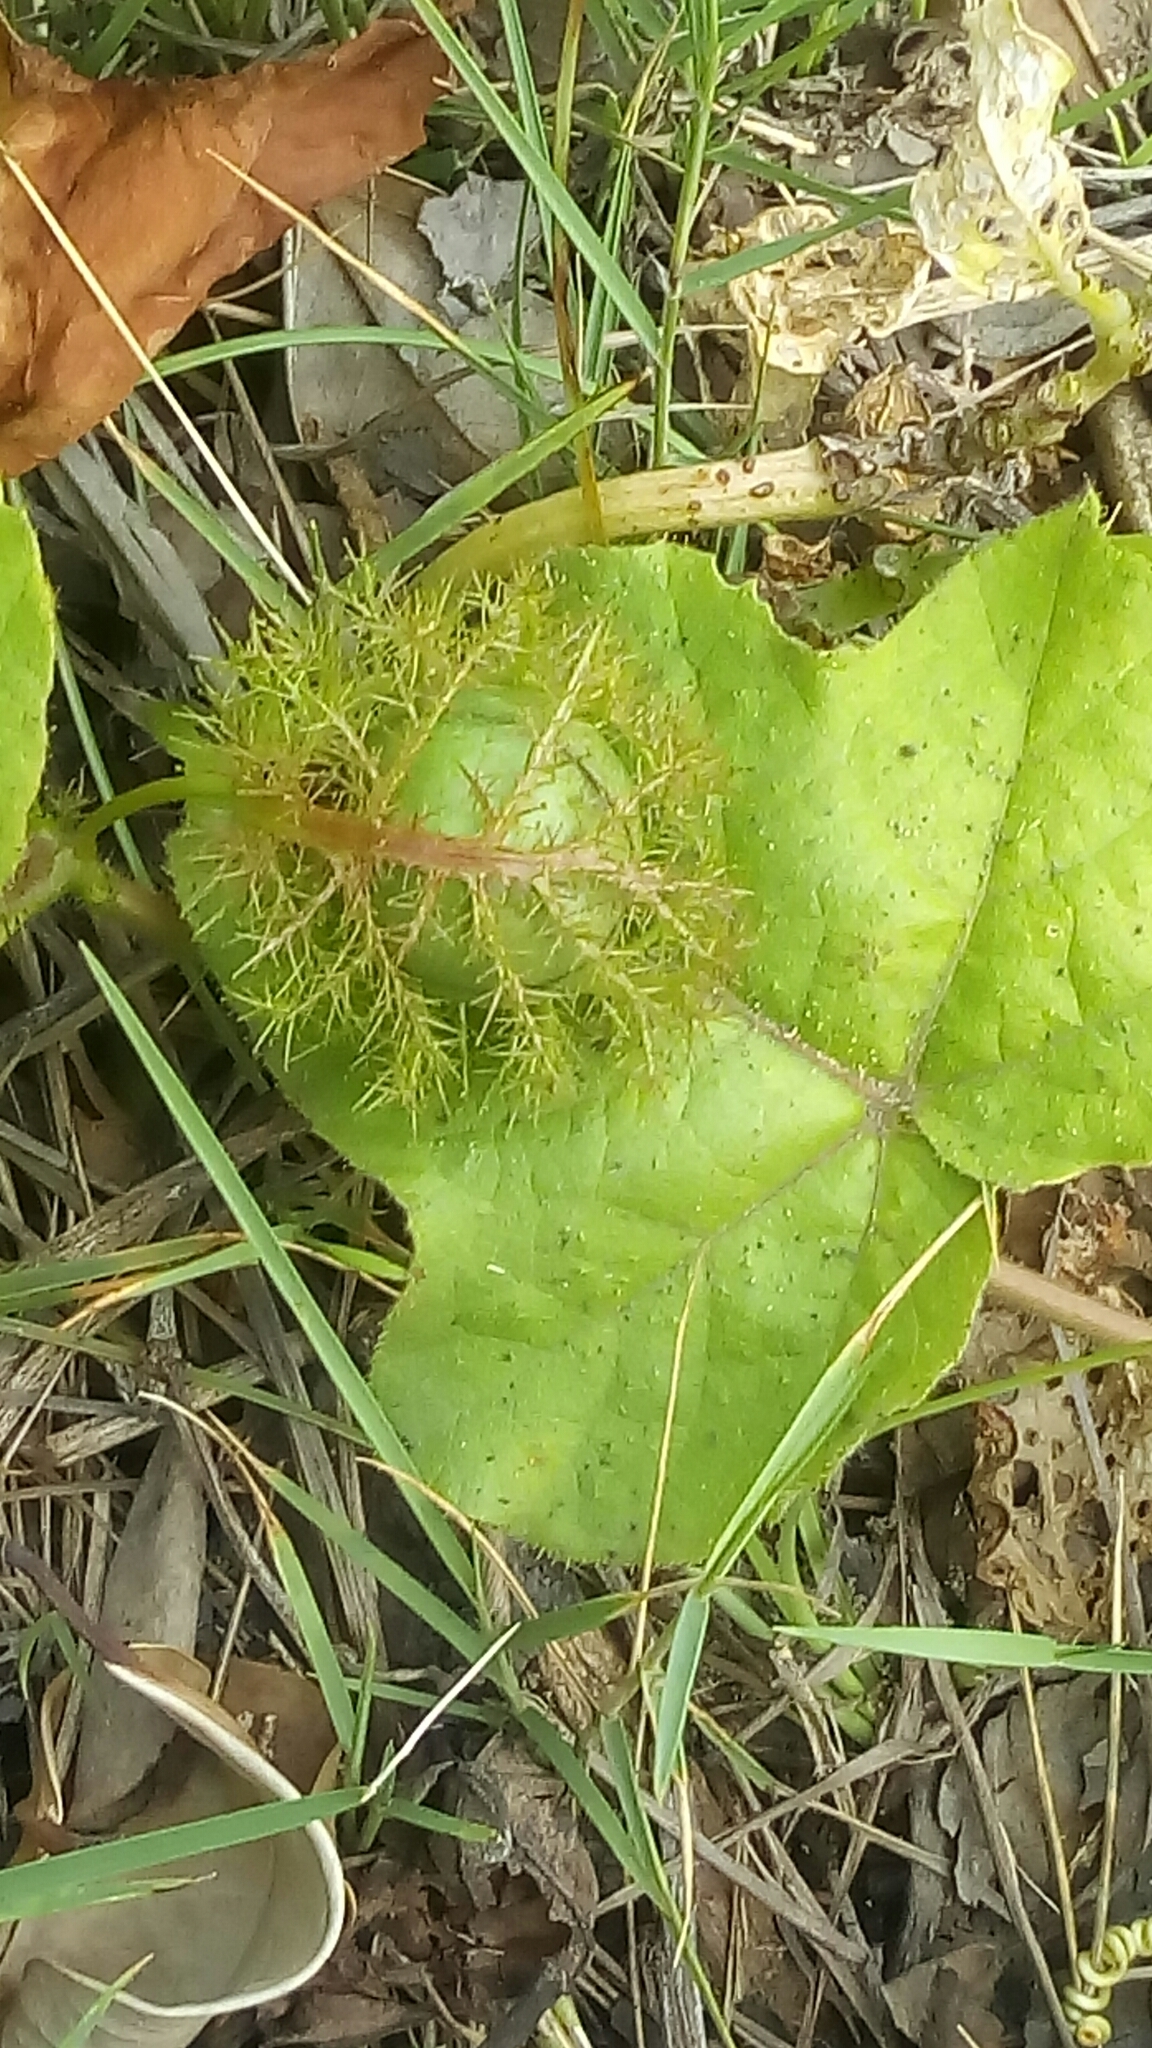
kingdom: Plantae
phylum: Tracheophyta
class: Magnoliopsida
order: Malpighiales
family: Passifloraceae
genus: Passiflora
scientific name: Passiflora vesicaria
